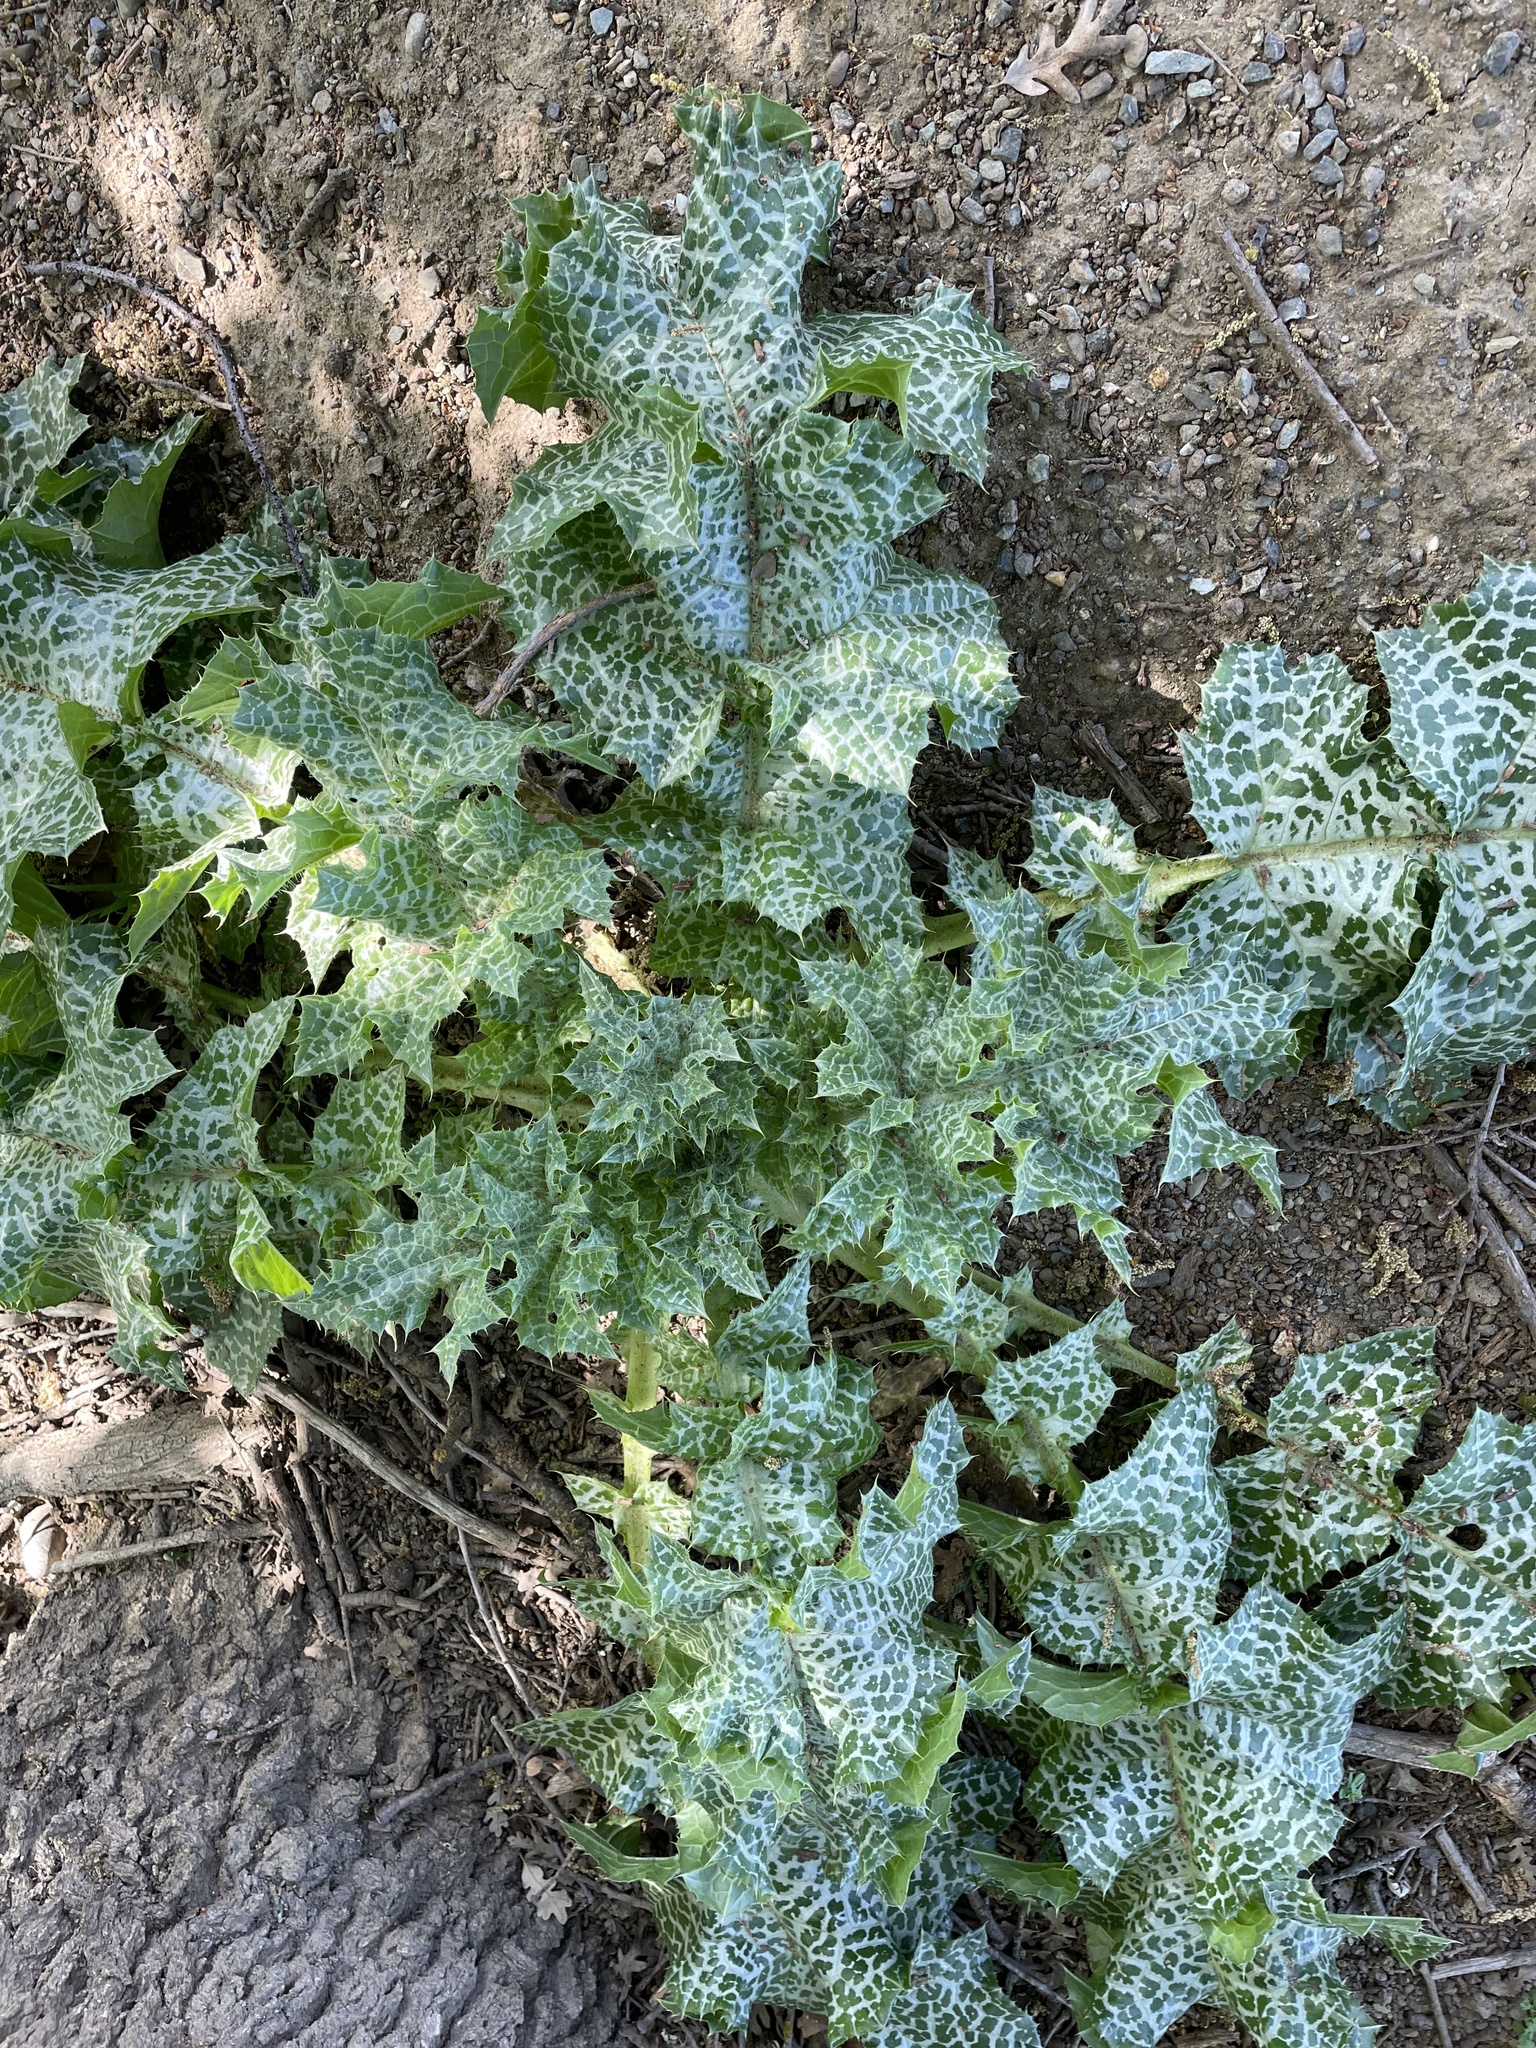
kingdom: Plantae
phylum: Tracheophyta
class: Magnoliopsida
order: Asterales
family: Asteraceae
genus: Silybum
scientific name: Silybum marianum
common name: Milk thistle
